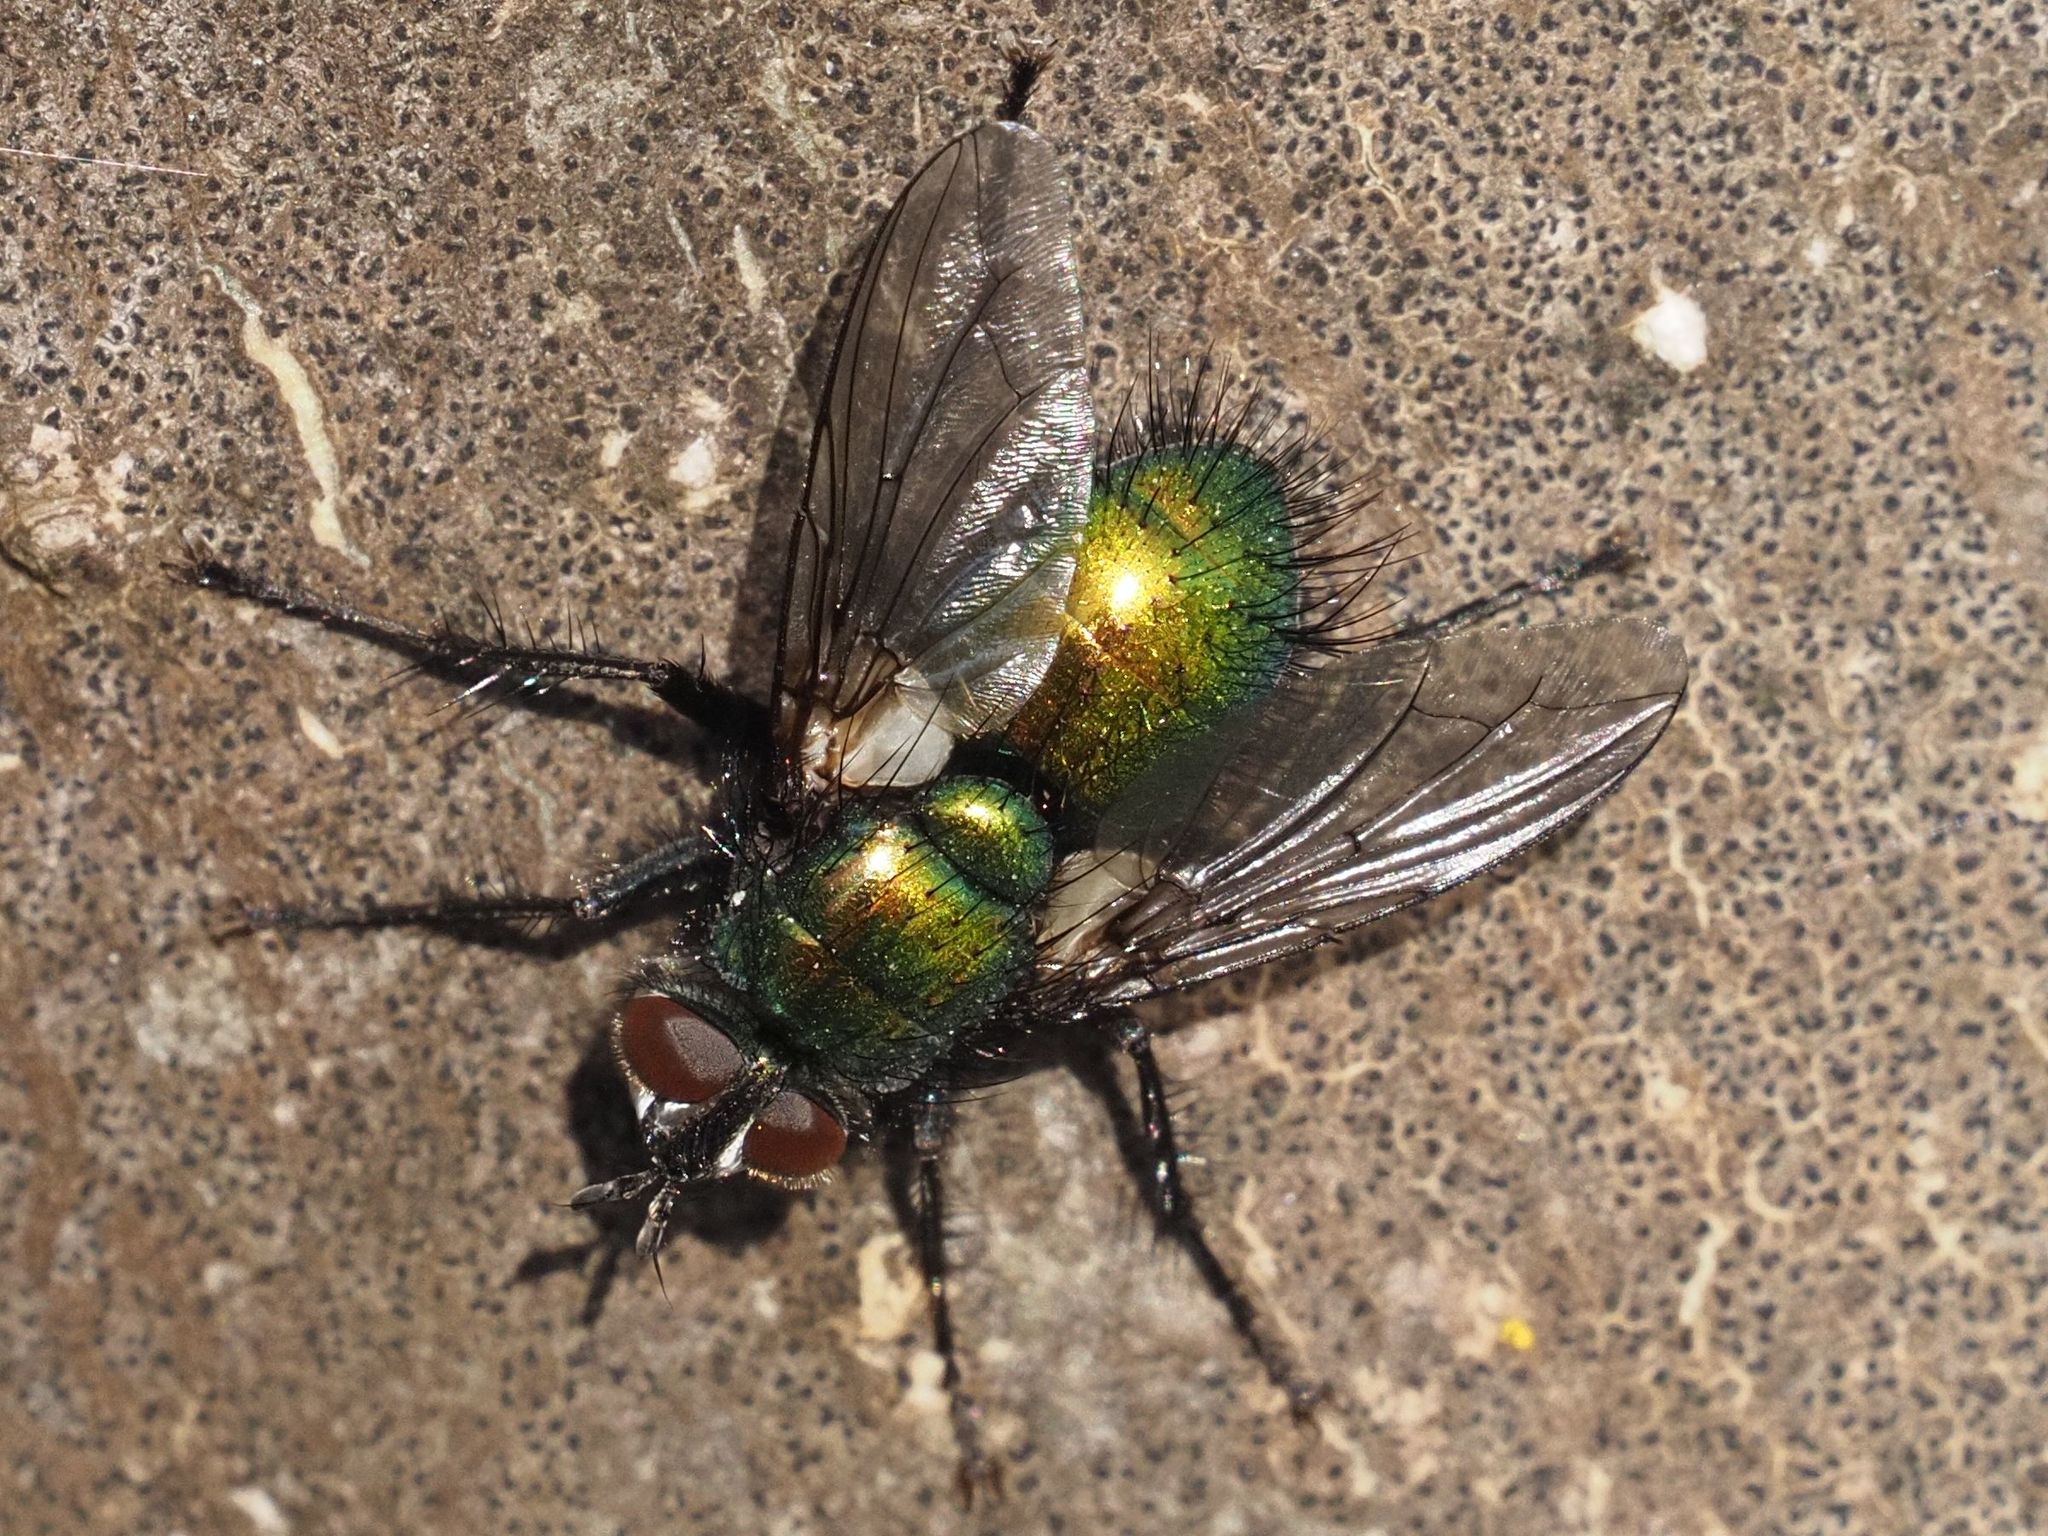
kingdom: Animalia
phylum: Arthropoda
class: Insecta
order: Diptera
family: Tachinidae
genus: Gymnocheta
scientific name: Gymnocheta viridis
